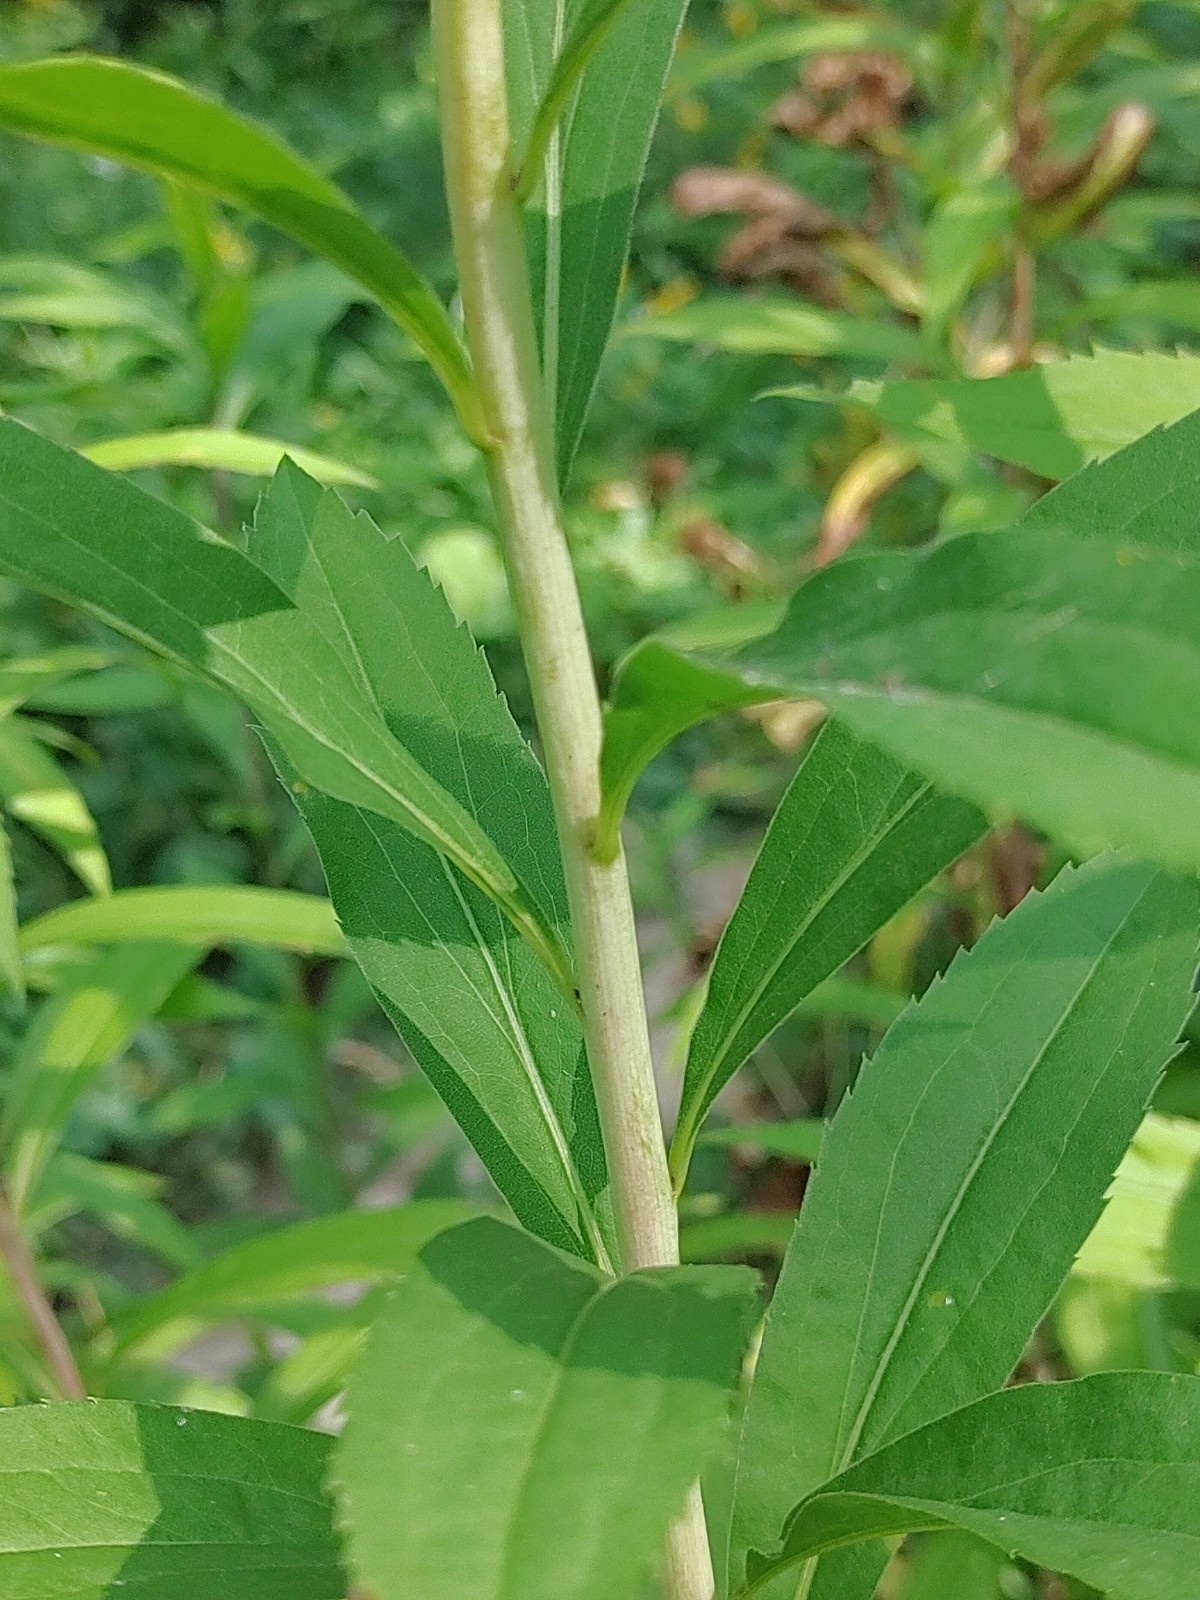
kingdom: Plantae
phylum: Tracheophyta
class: Magnoliopsida
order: Asterales
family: Asteraceae
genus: Solidago
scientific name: Solidago gigantea
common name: Giant goldenrod
